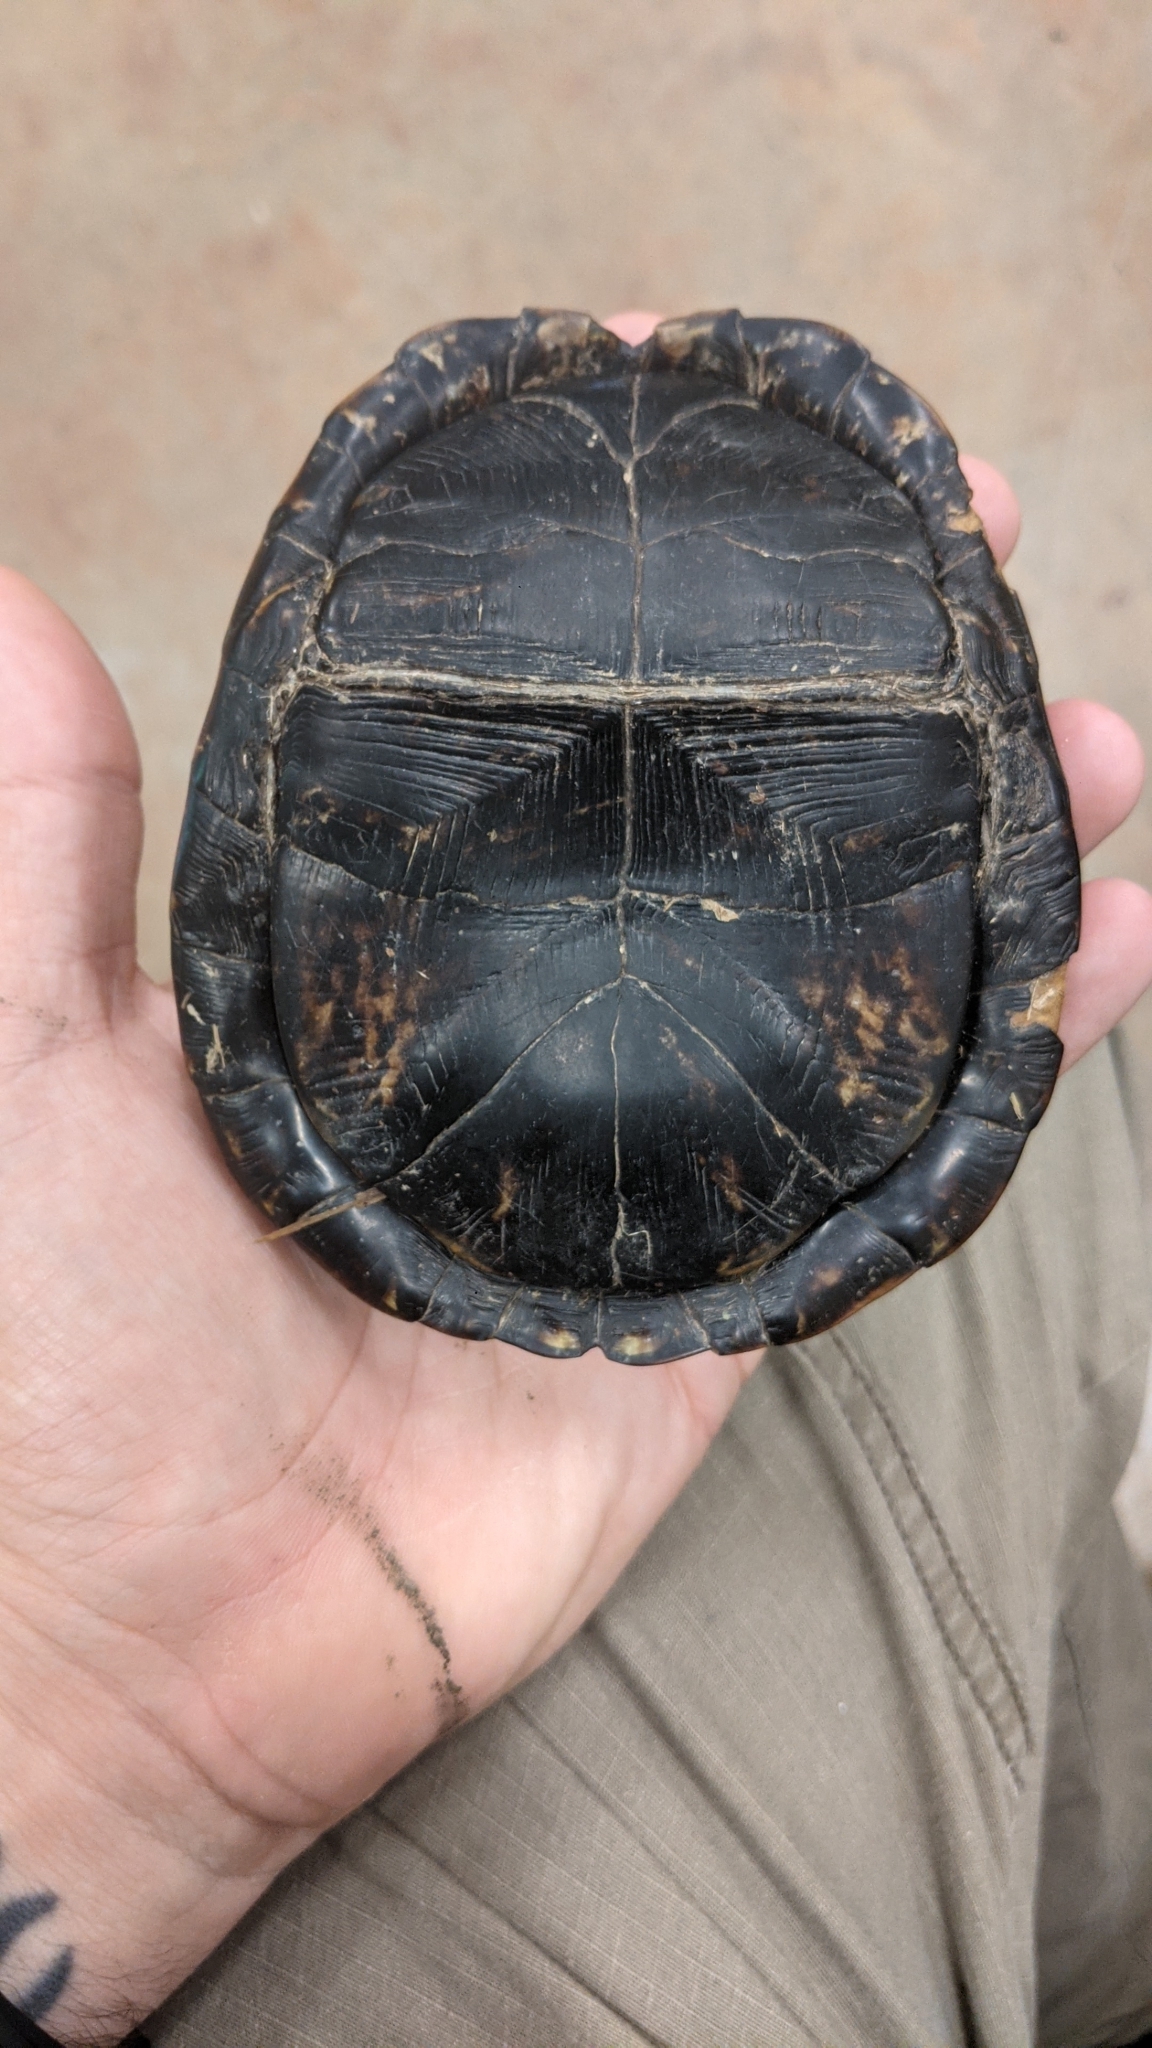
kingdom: Animalia
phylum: Chordata
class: Testudines
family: Emydidae
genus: Terrapene
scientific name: Terrapene carolina
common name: Common box turtle
